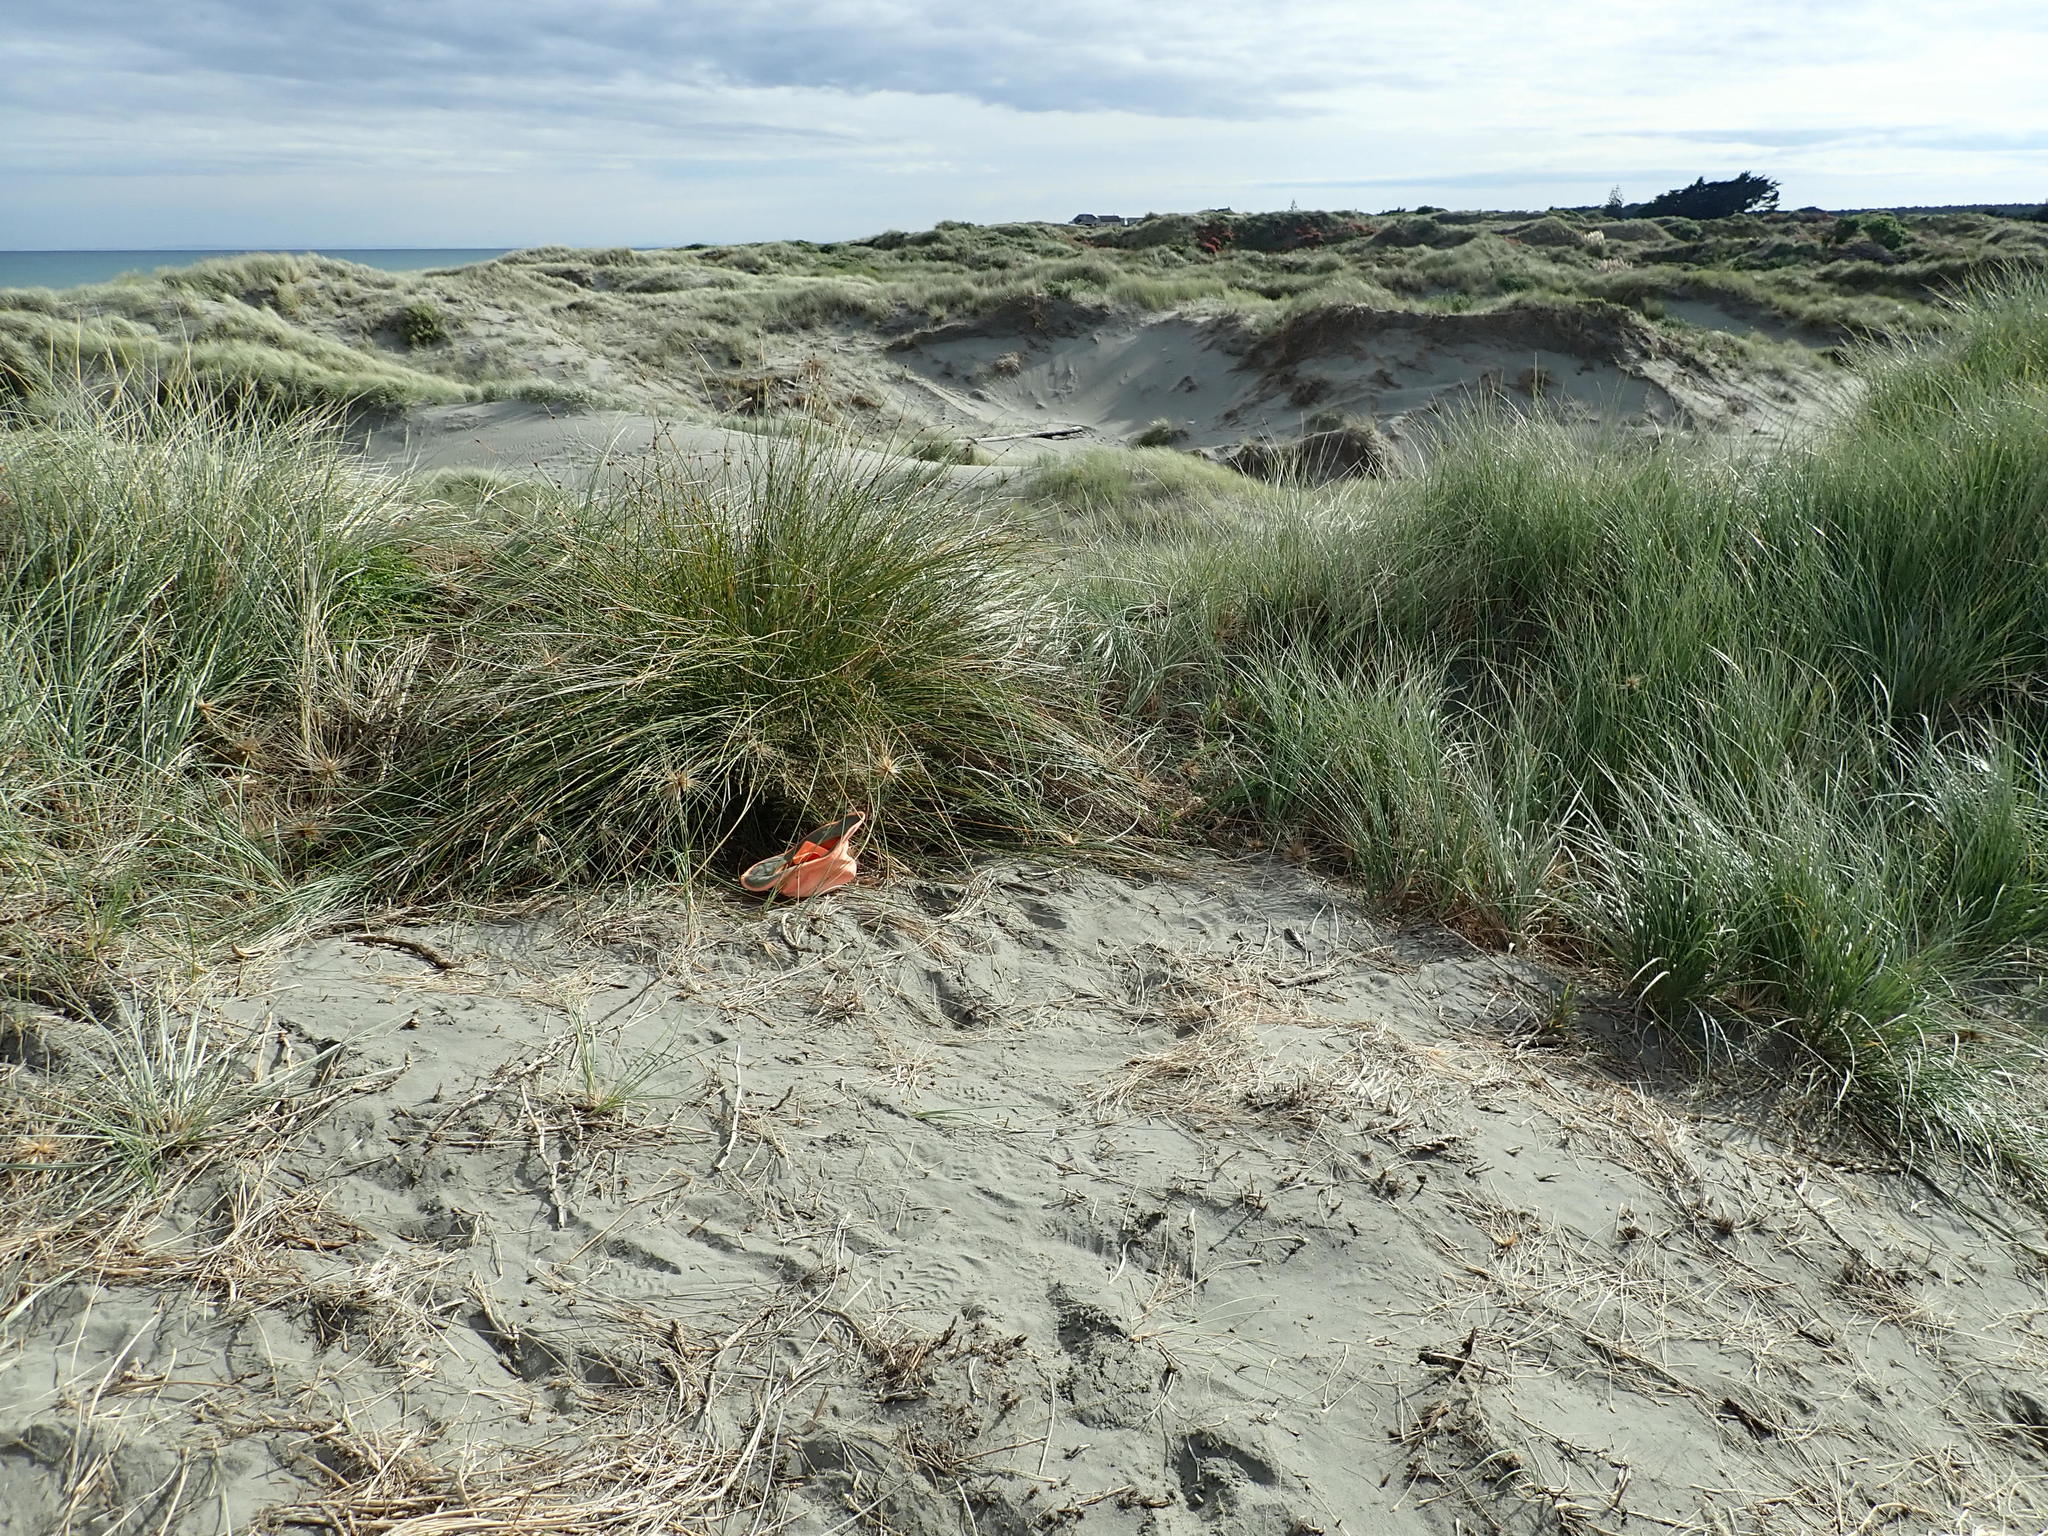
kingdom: Plantae
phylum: Tracheophyta
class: Magnoliopsida
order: Caryophyllales
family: Aizoaceae
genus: Tetragonia
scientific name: Tetragonia implexicoma
